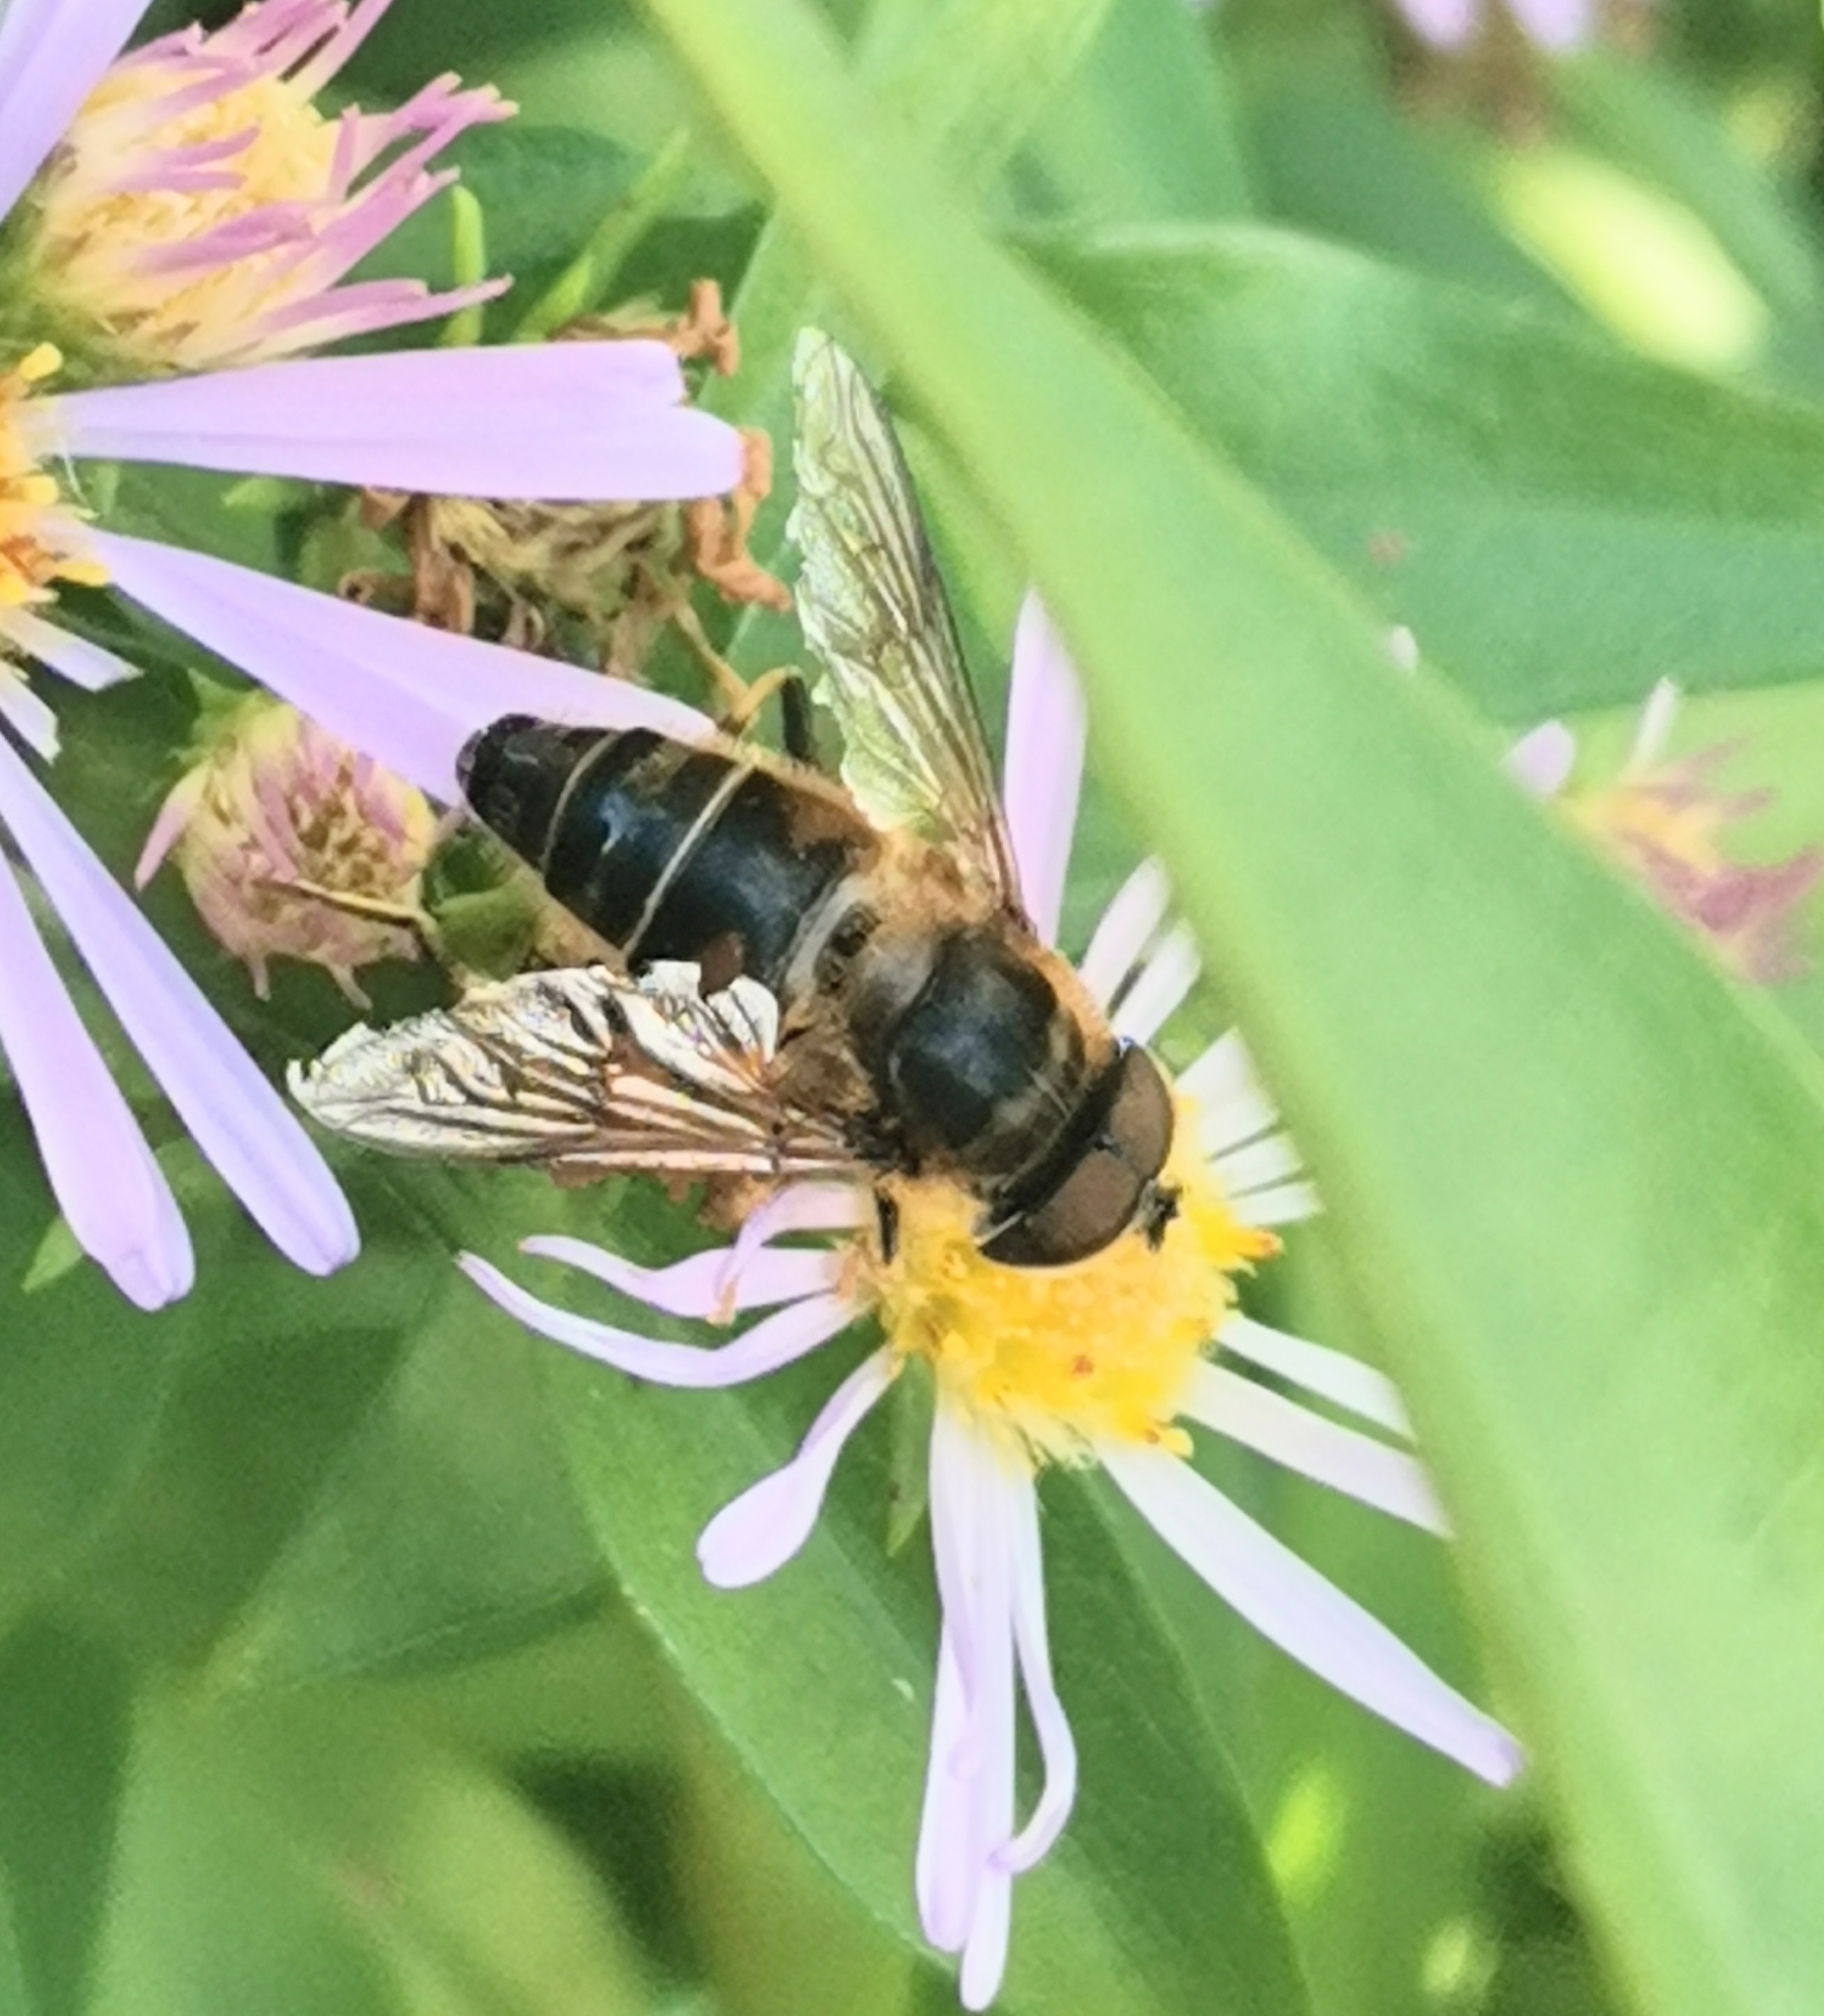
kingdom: Animalia
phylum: Arthropoda
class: Insecta
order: Diptera
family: Syrphidae
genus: Eristalis
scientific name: Eristalis pertinax
